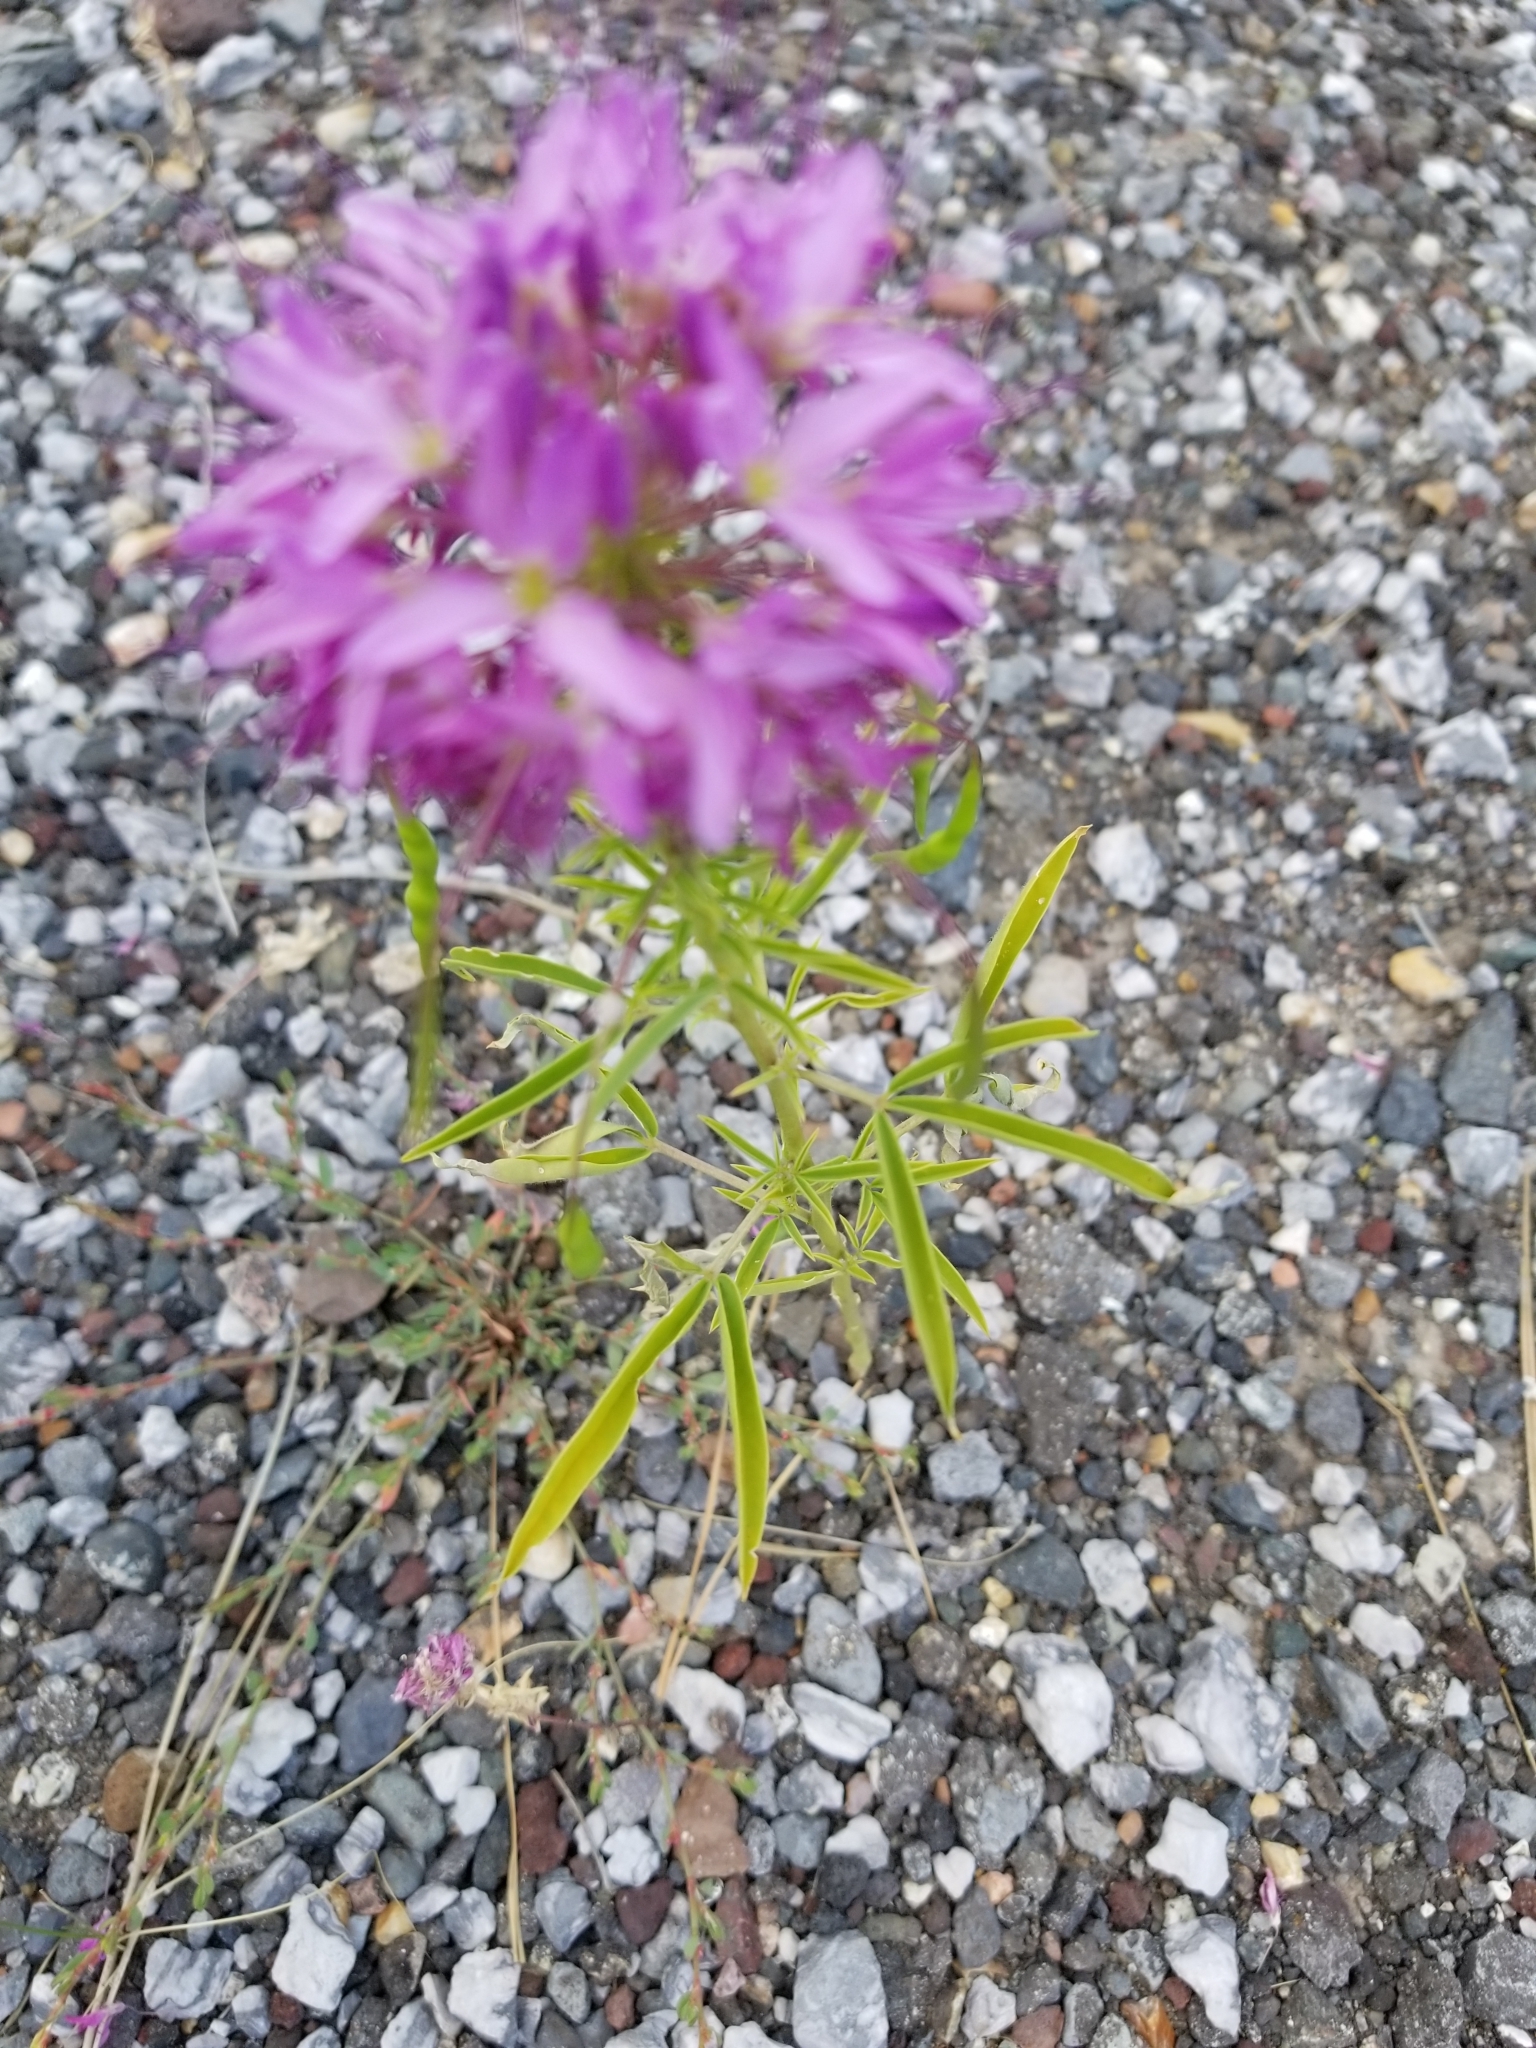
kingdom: Plantae
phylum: Tracheophyta
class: Magnoliopsida
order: Brassicales
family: Cleomaceae
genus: Cleomella
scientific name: Cleomella serrulata
